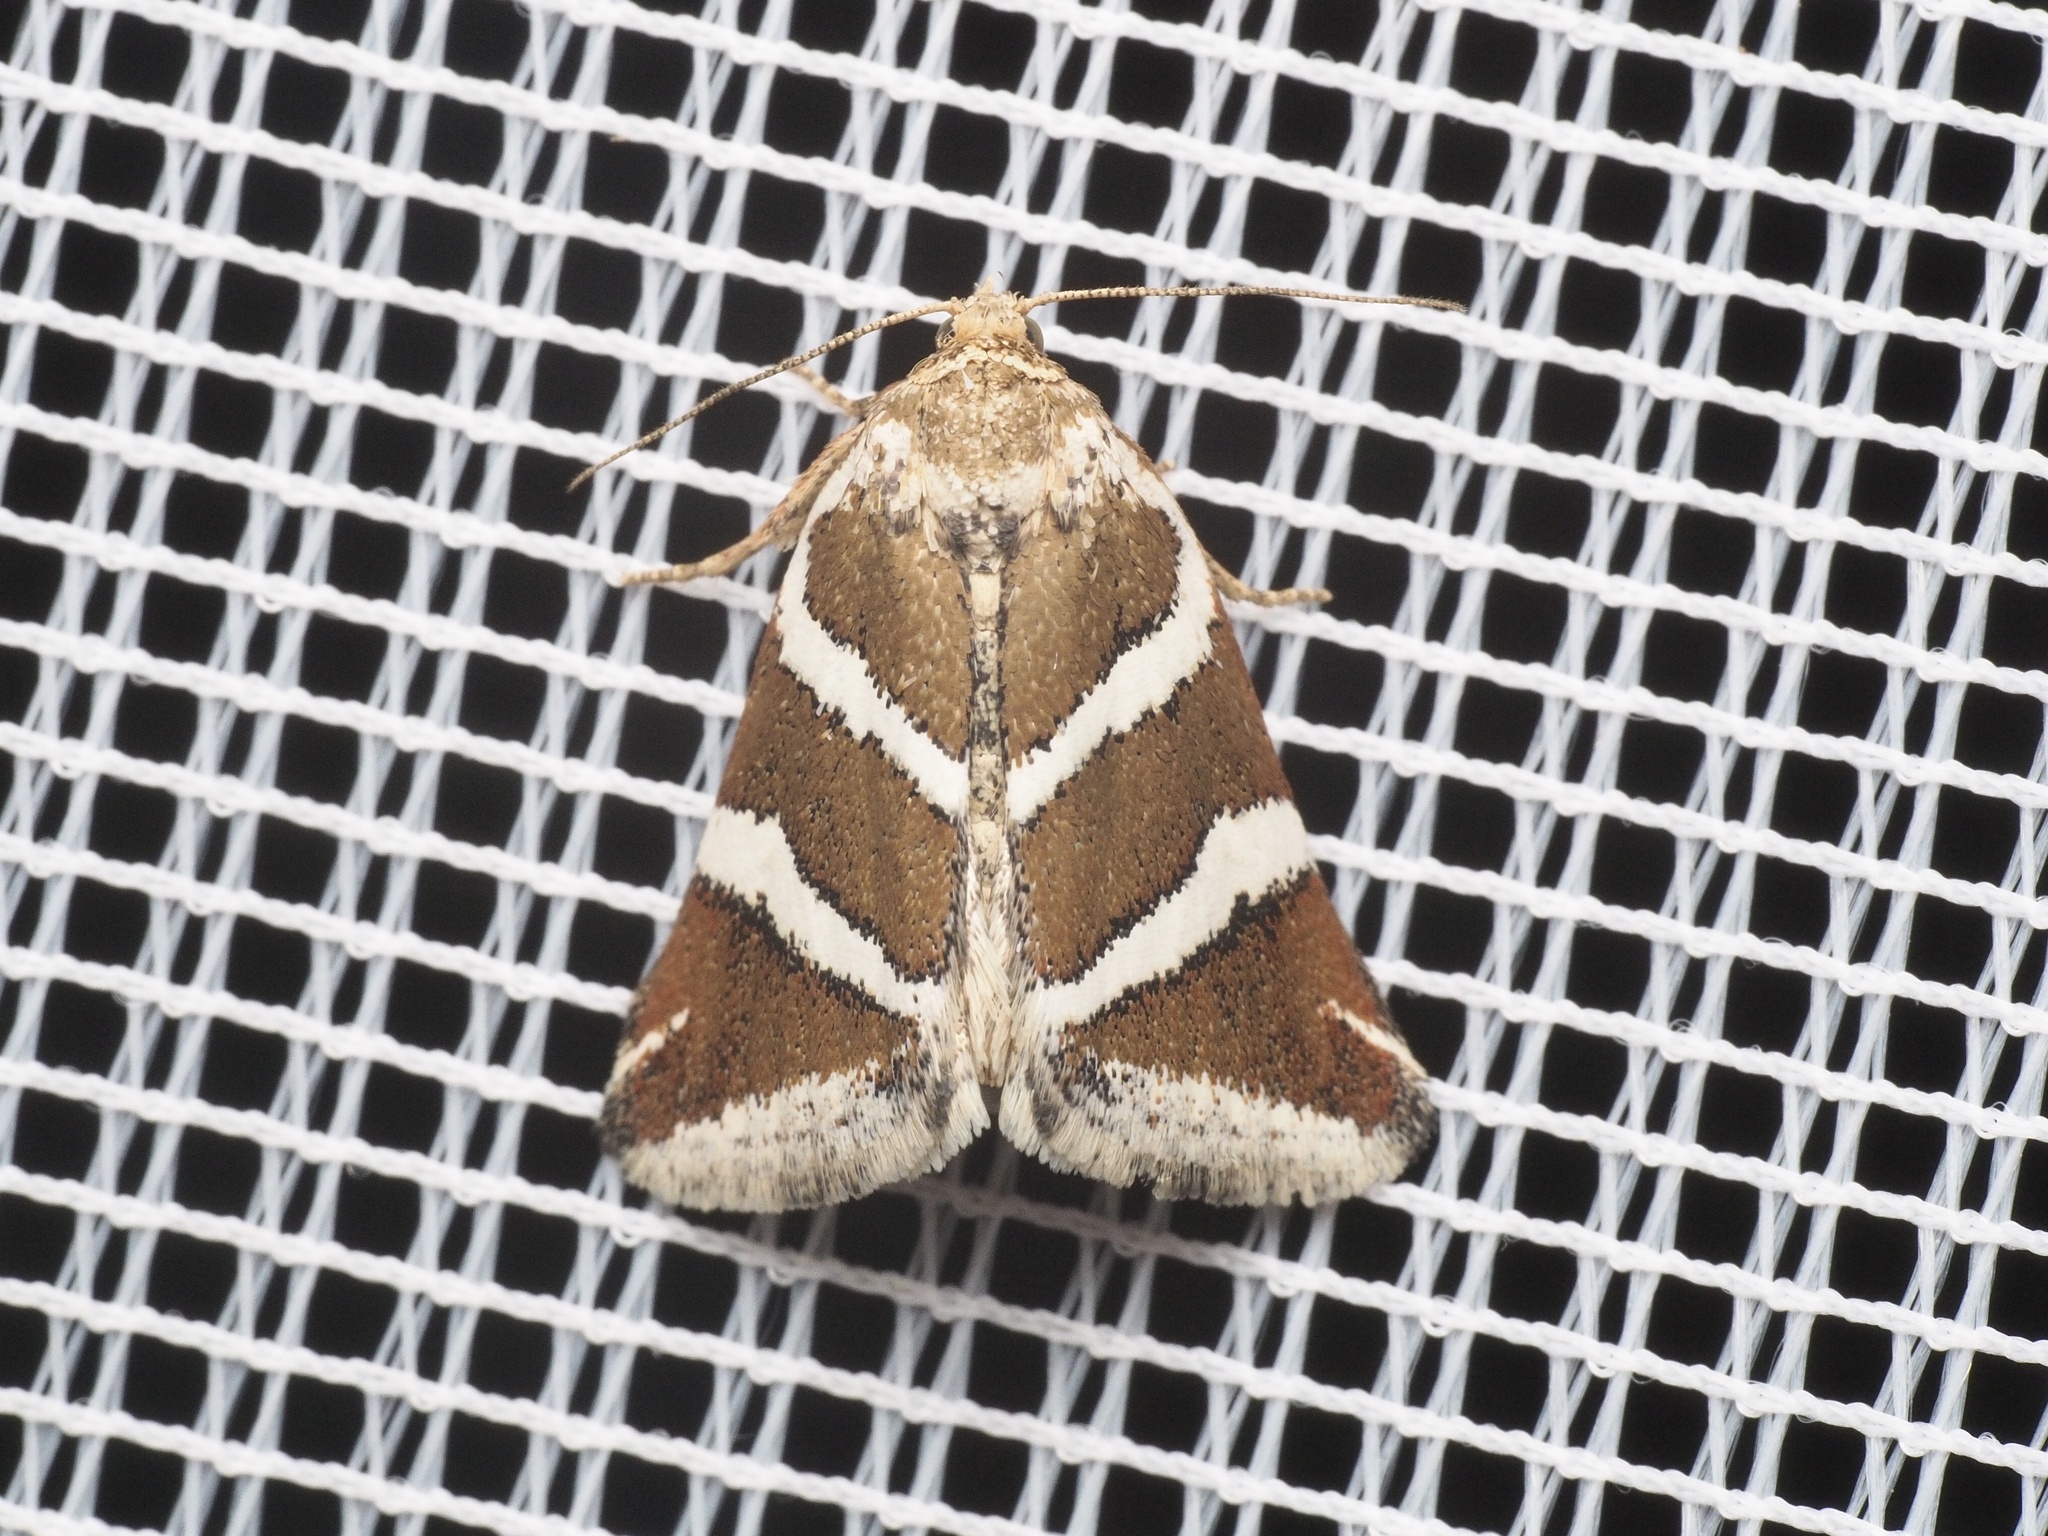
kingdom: Animalia
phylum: Arthropoda
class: Insecta
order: Lepidoptera
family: Noctuidae
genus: Deltote
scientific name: Deltote bankiana
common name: Silver barred
